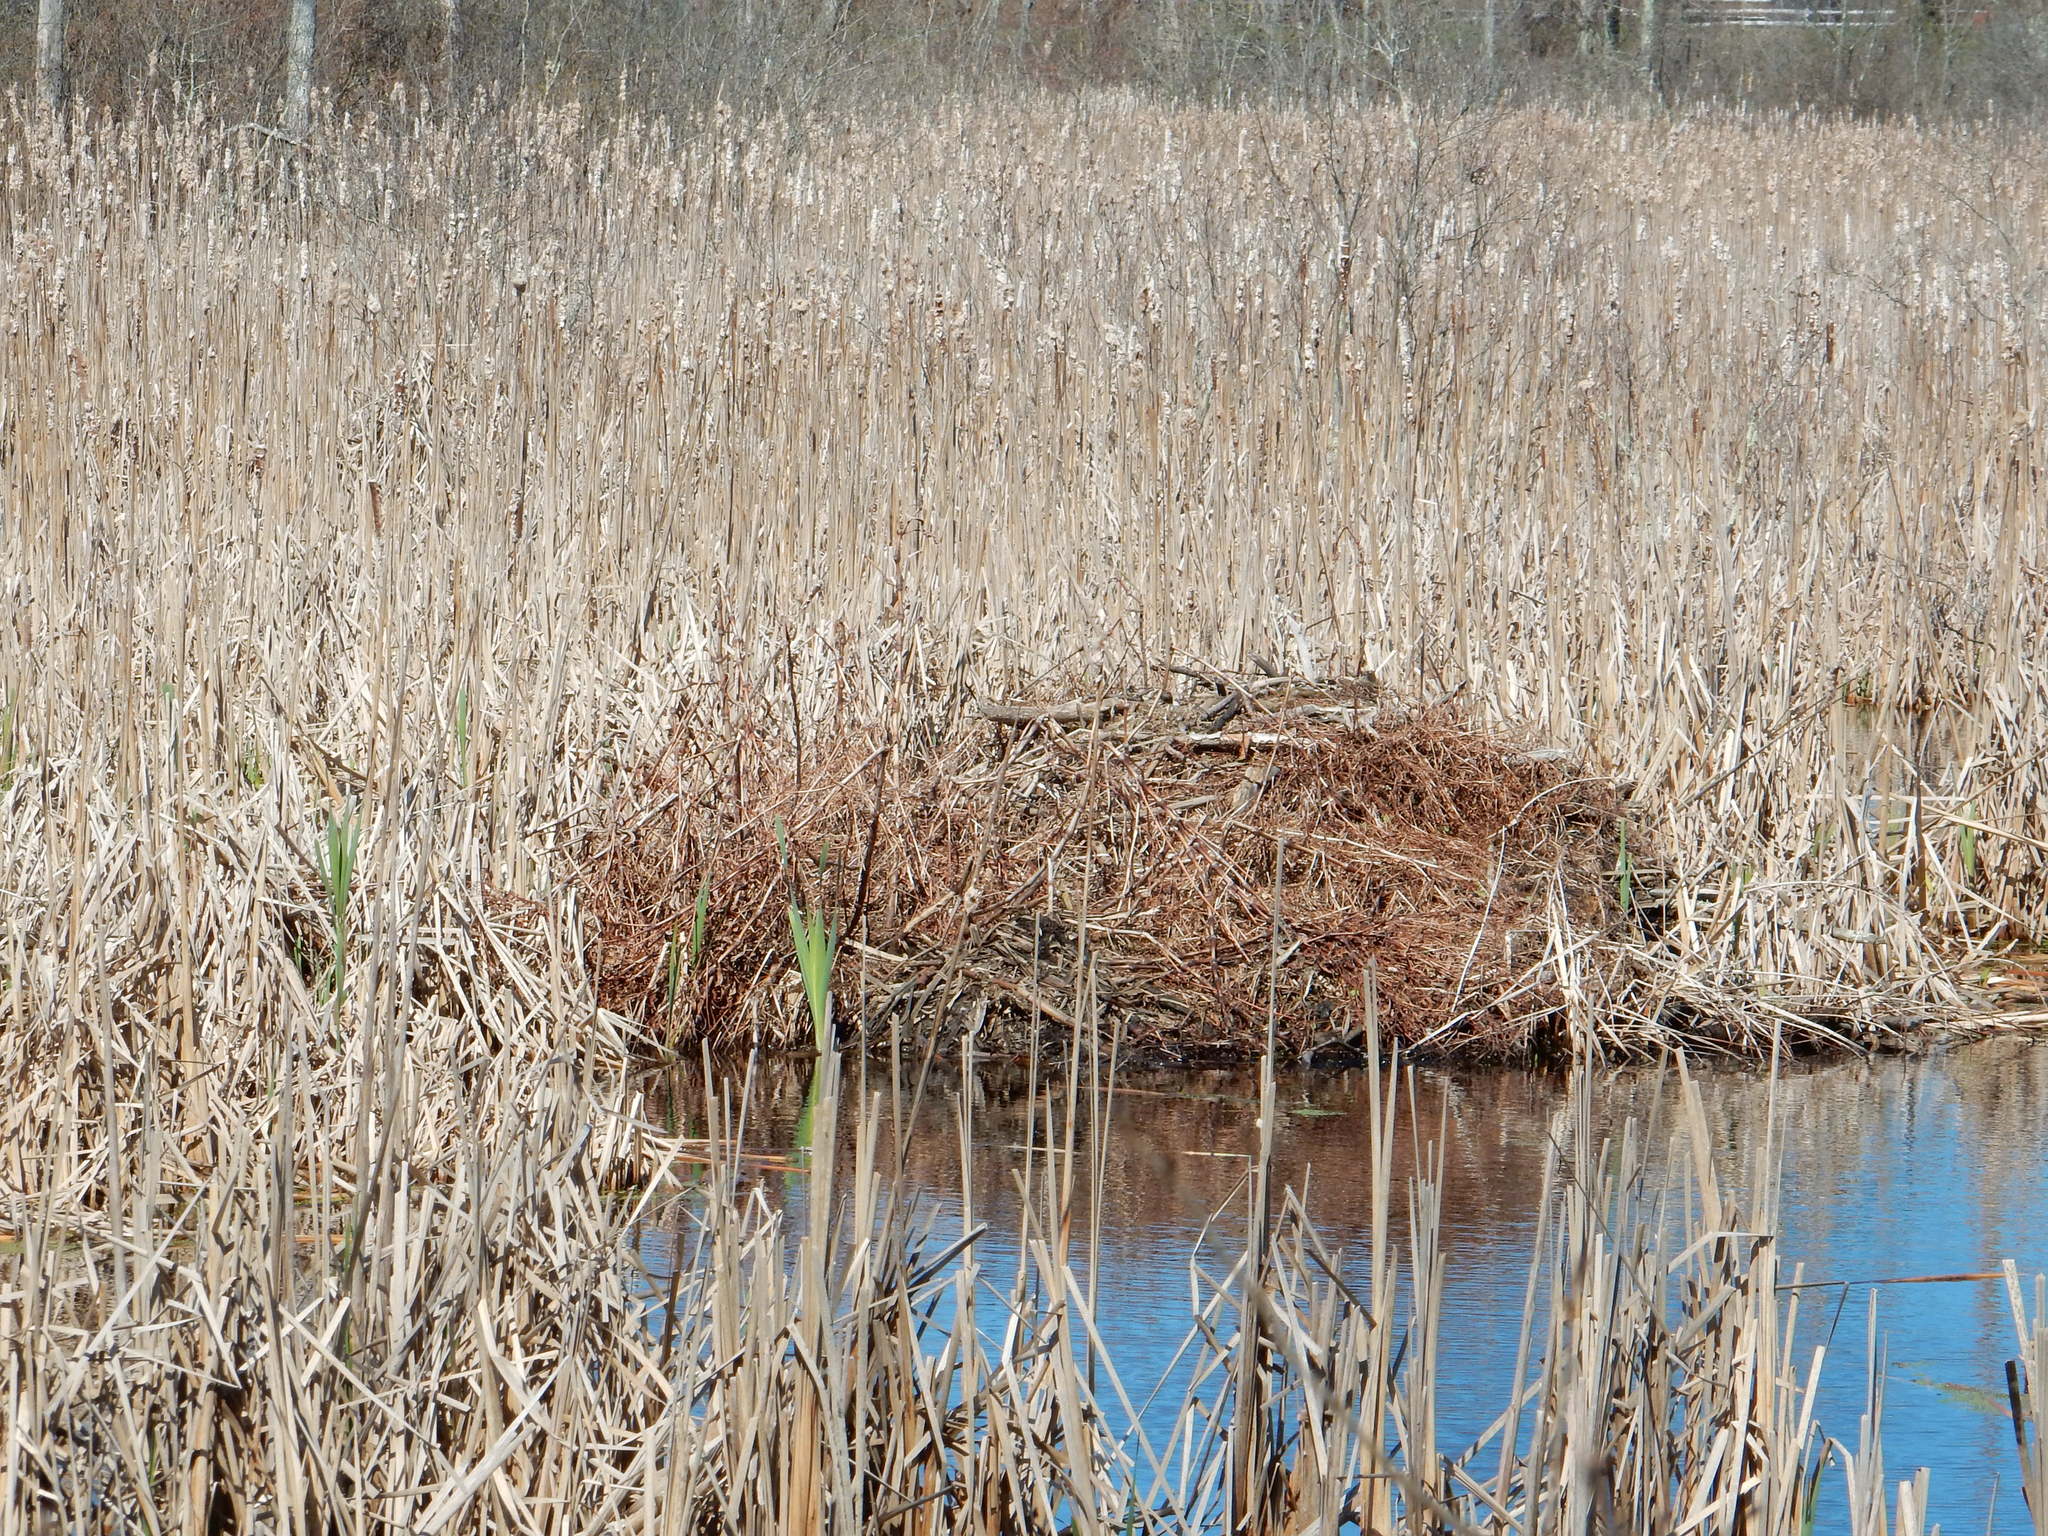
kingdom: Animalia
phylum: Chordata
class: Mammalia
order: Rodentia
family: Castoridae
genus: Castor
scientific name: Castor canadensis
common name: American beaver
